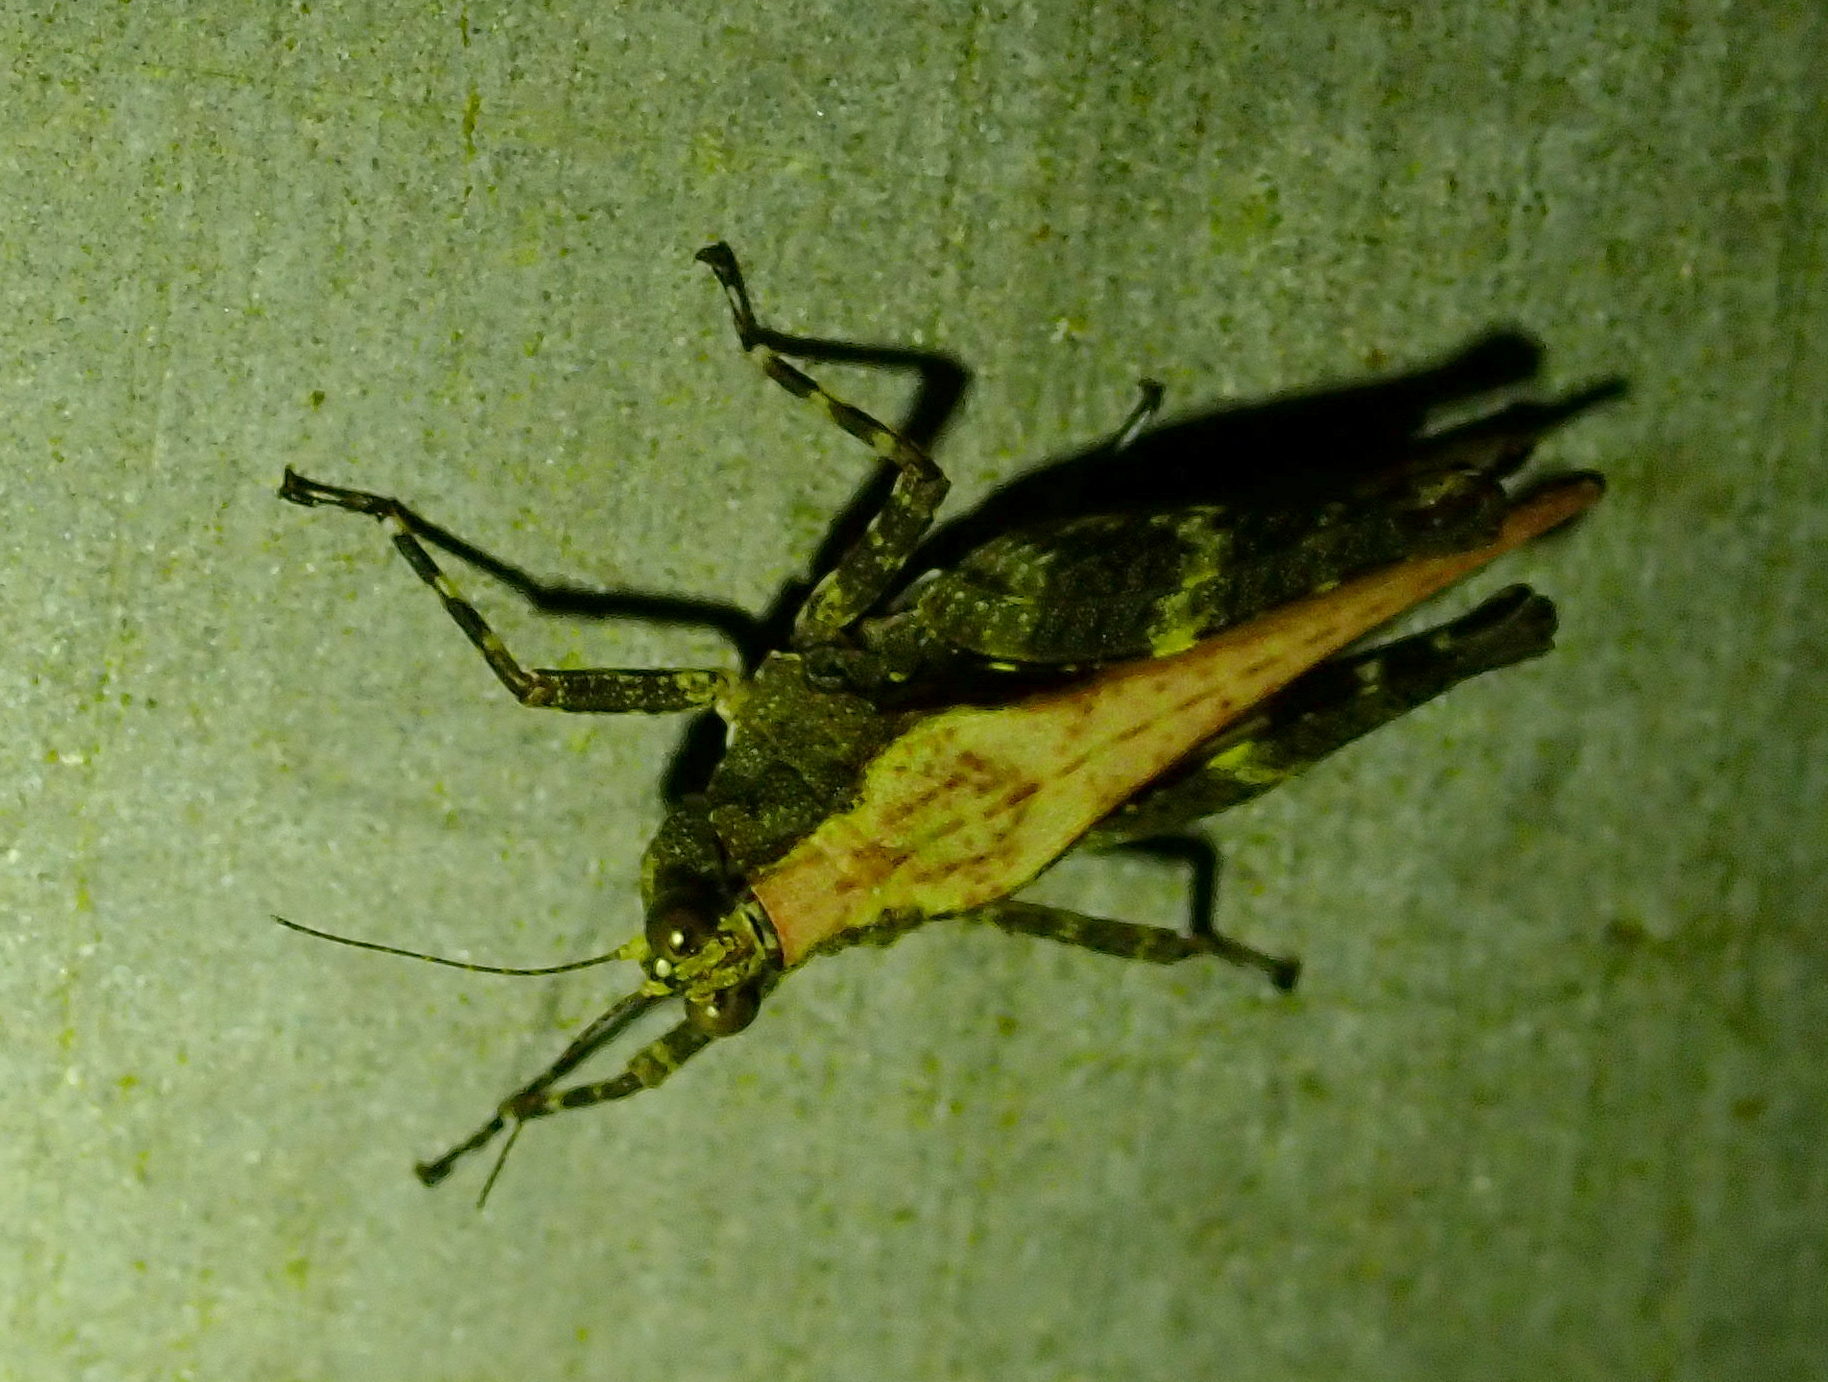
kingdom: Animalia
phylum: Arthropoda
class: Insecta
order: Orthoptera
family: Tetrigidae
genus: Eucriotettix
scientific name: Eucriotettix thienemanni
